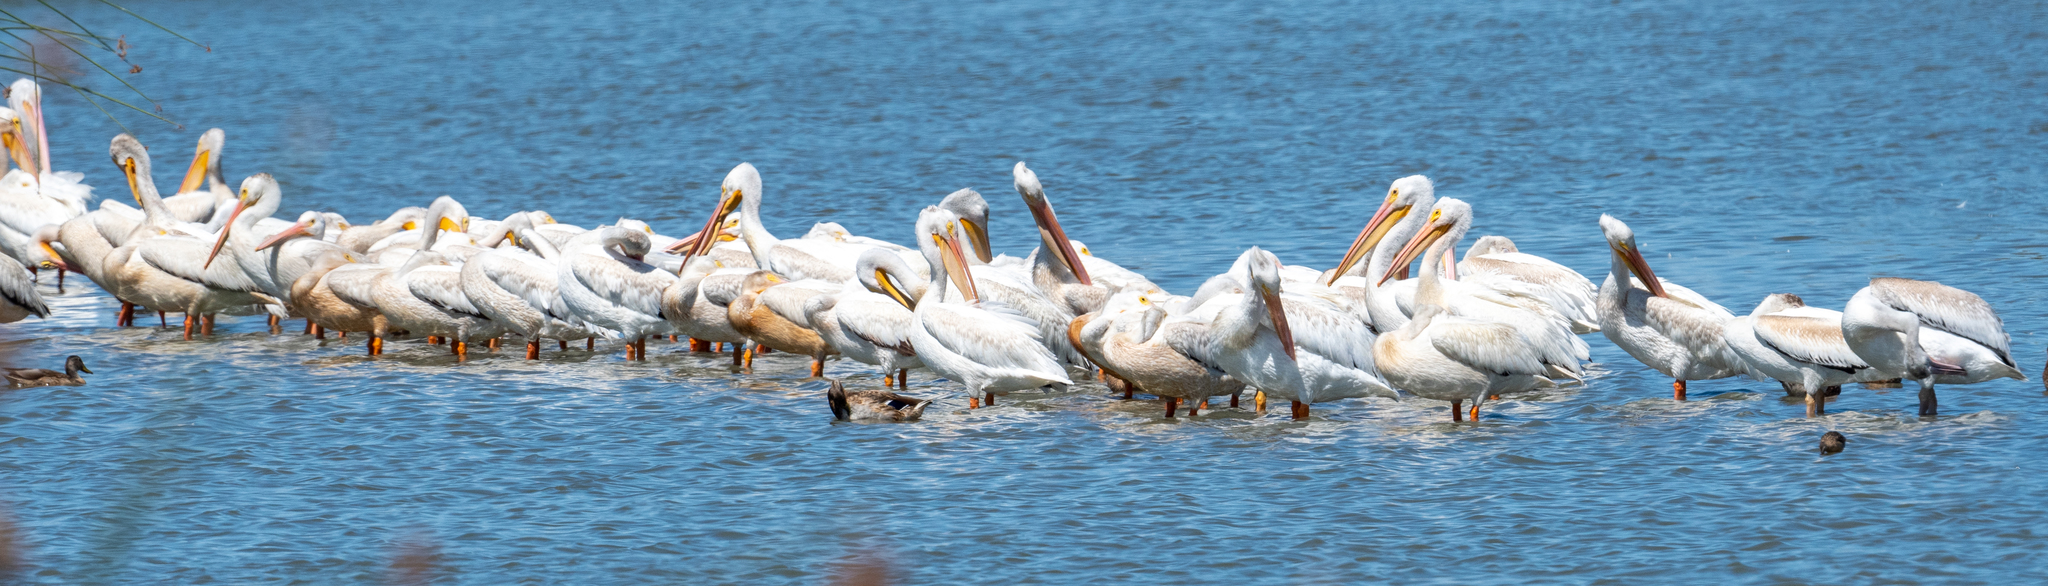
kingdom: Animalia
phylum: Chordata
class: Aves
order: Pelecaniformes
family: Pelecanidae
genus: Pelecanus
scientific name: Pelecanus erythrorhynchos
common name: American white pelican
